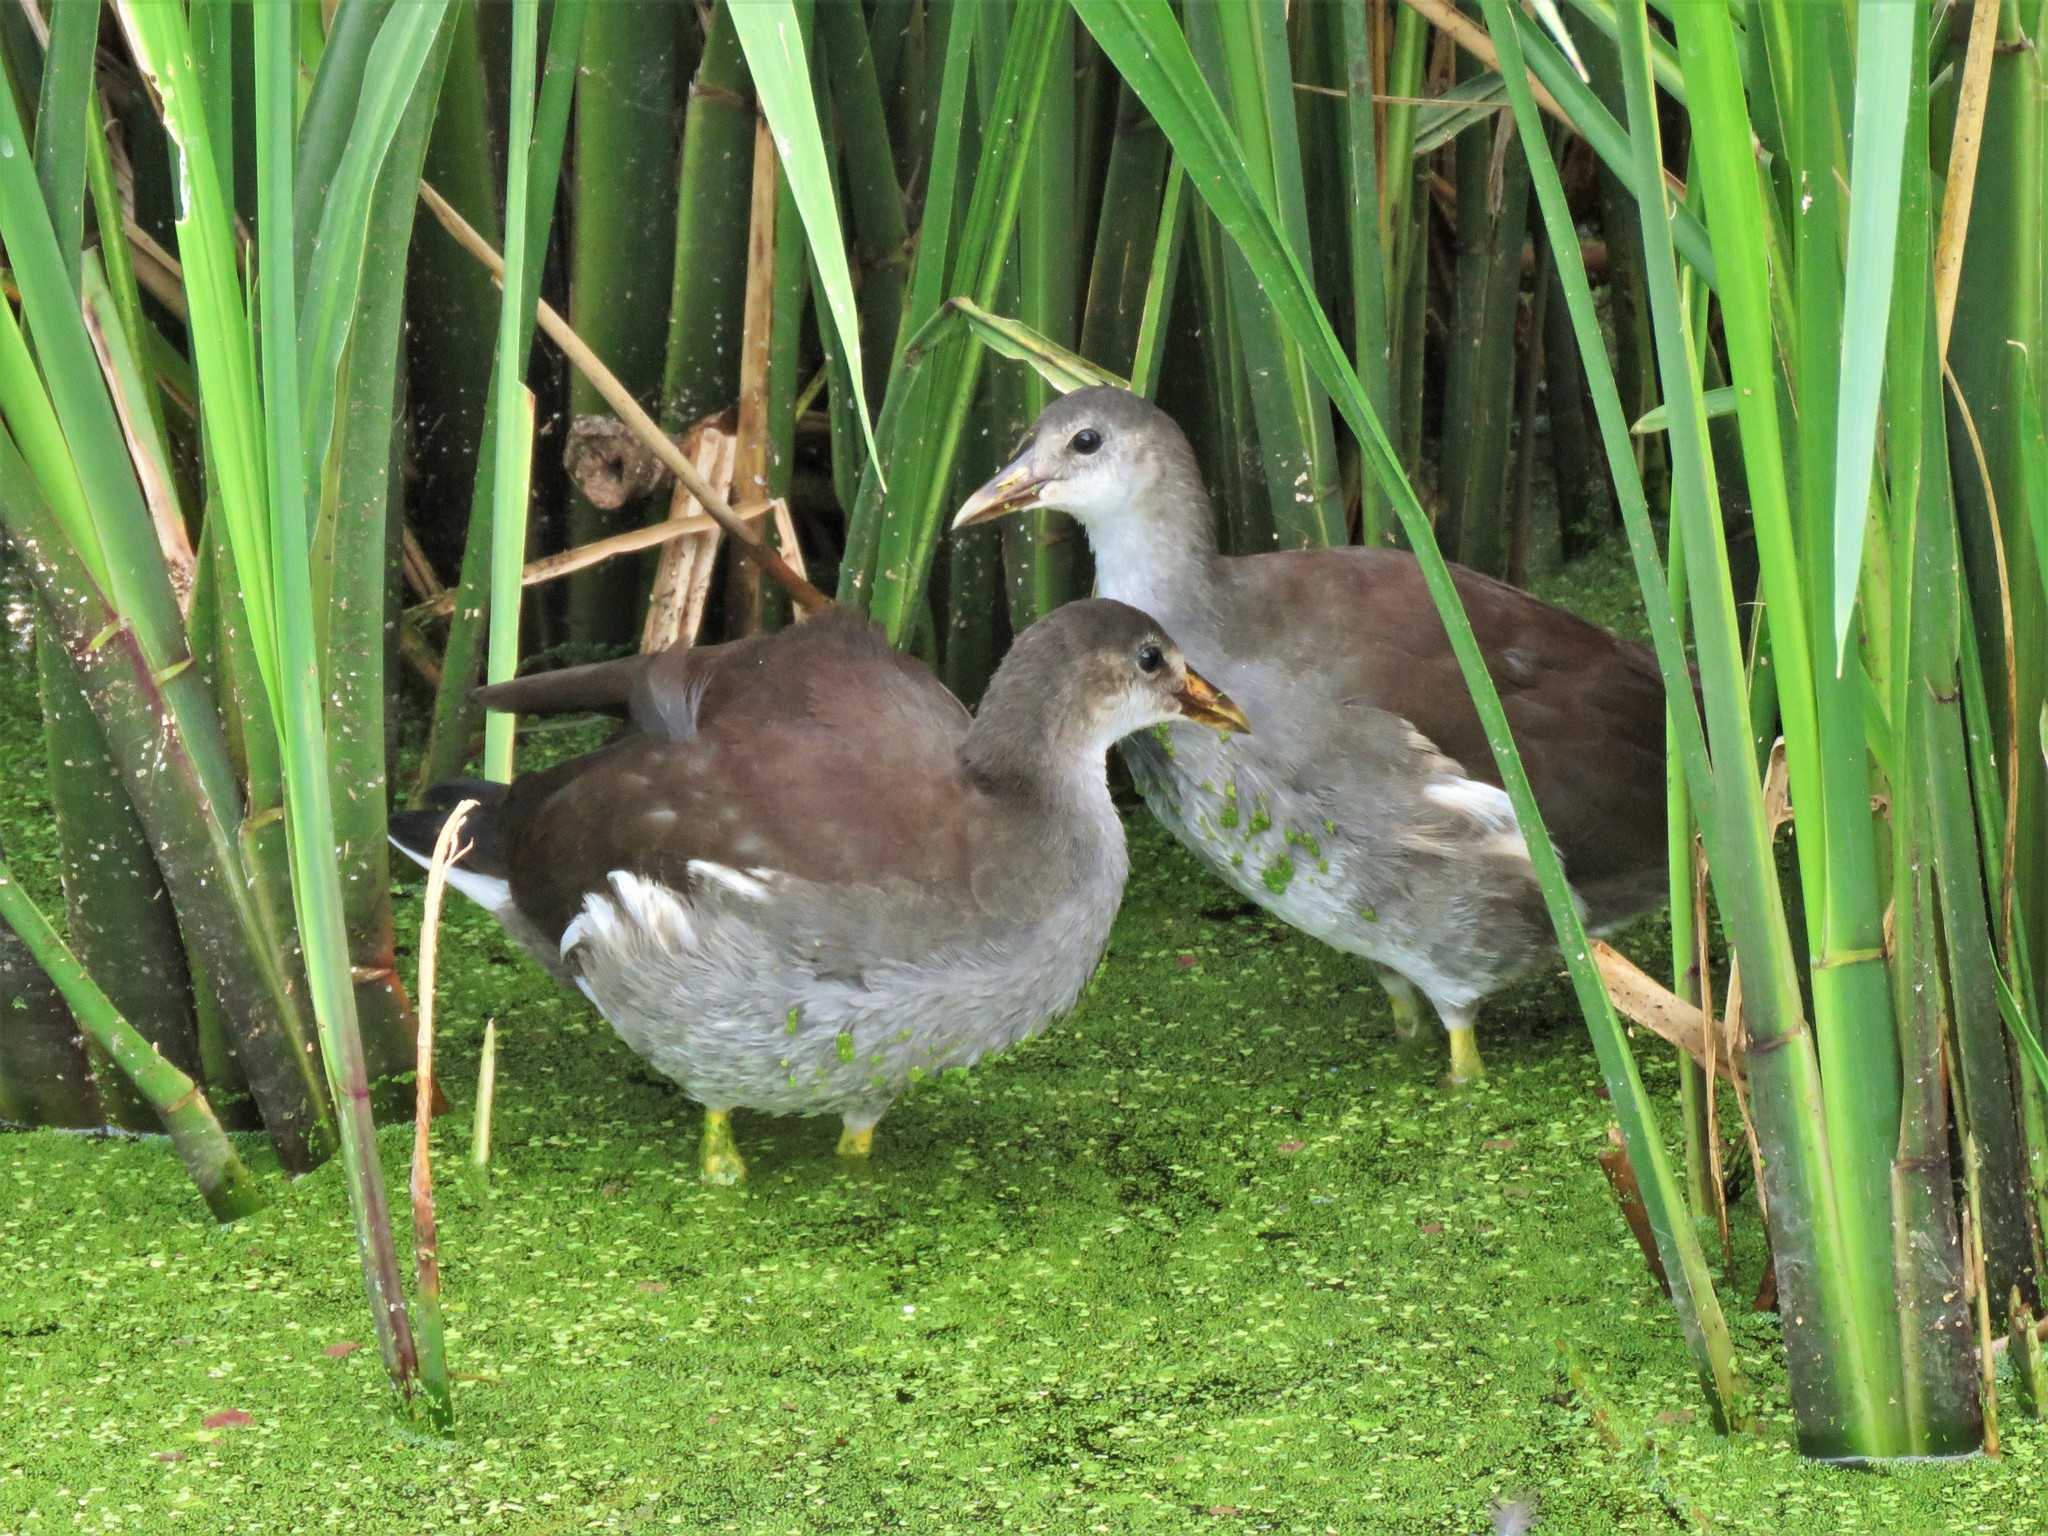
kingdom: Animalia
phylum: Chordata
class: Aves
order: Gruiformes
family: Rallidae
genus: Gallinula
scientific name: Gallinula chloropus
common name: Common moorhen
